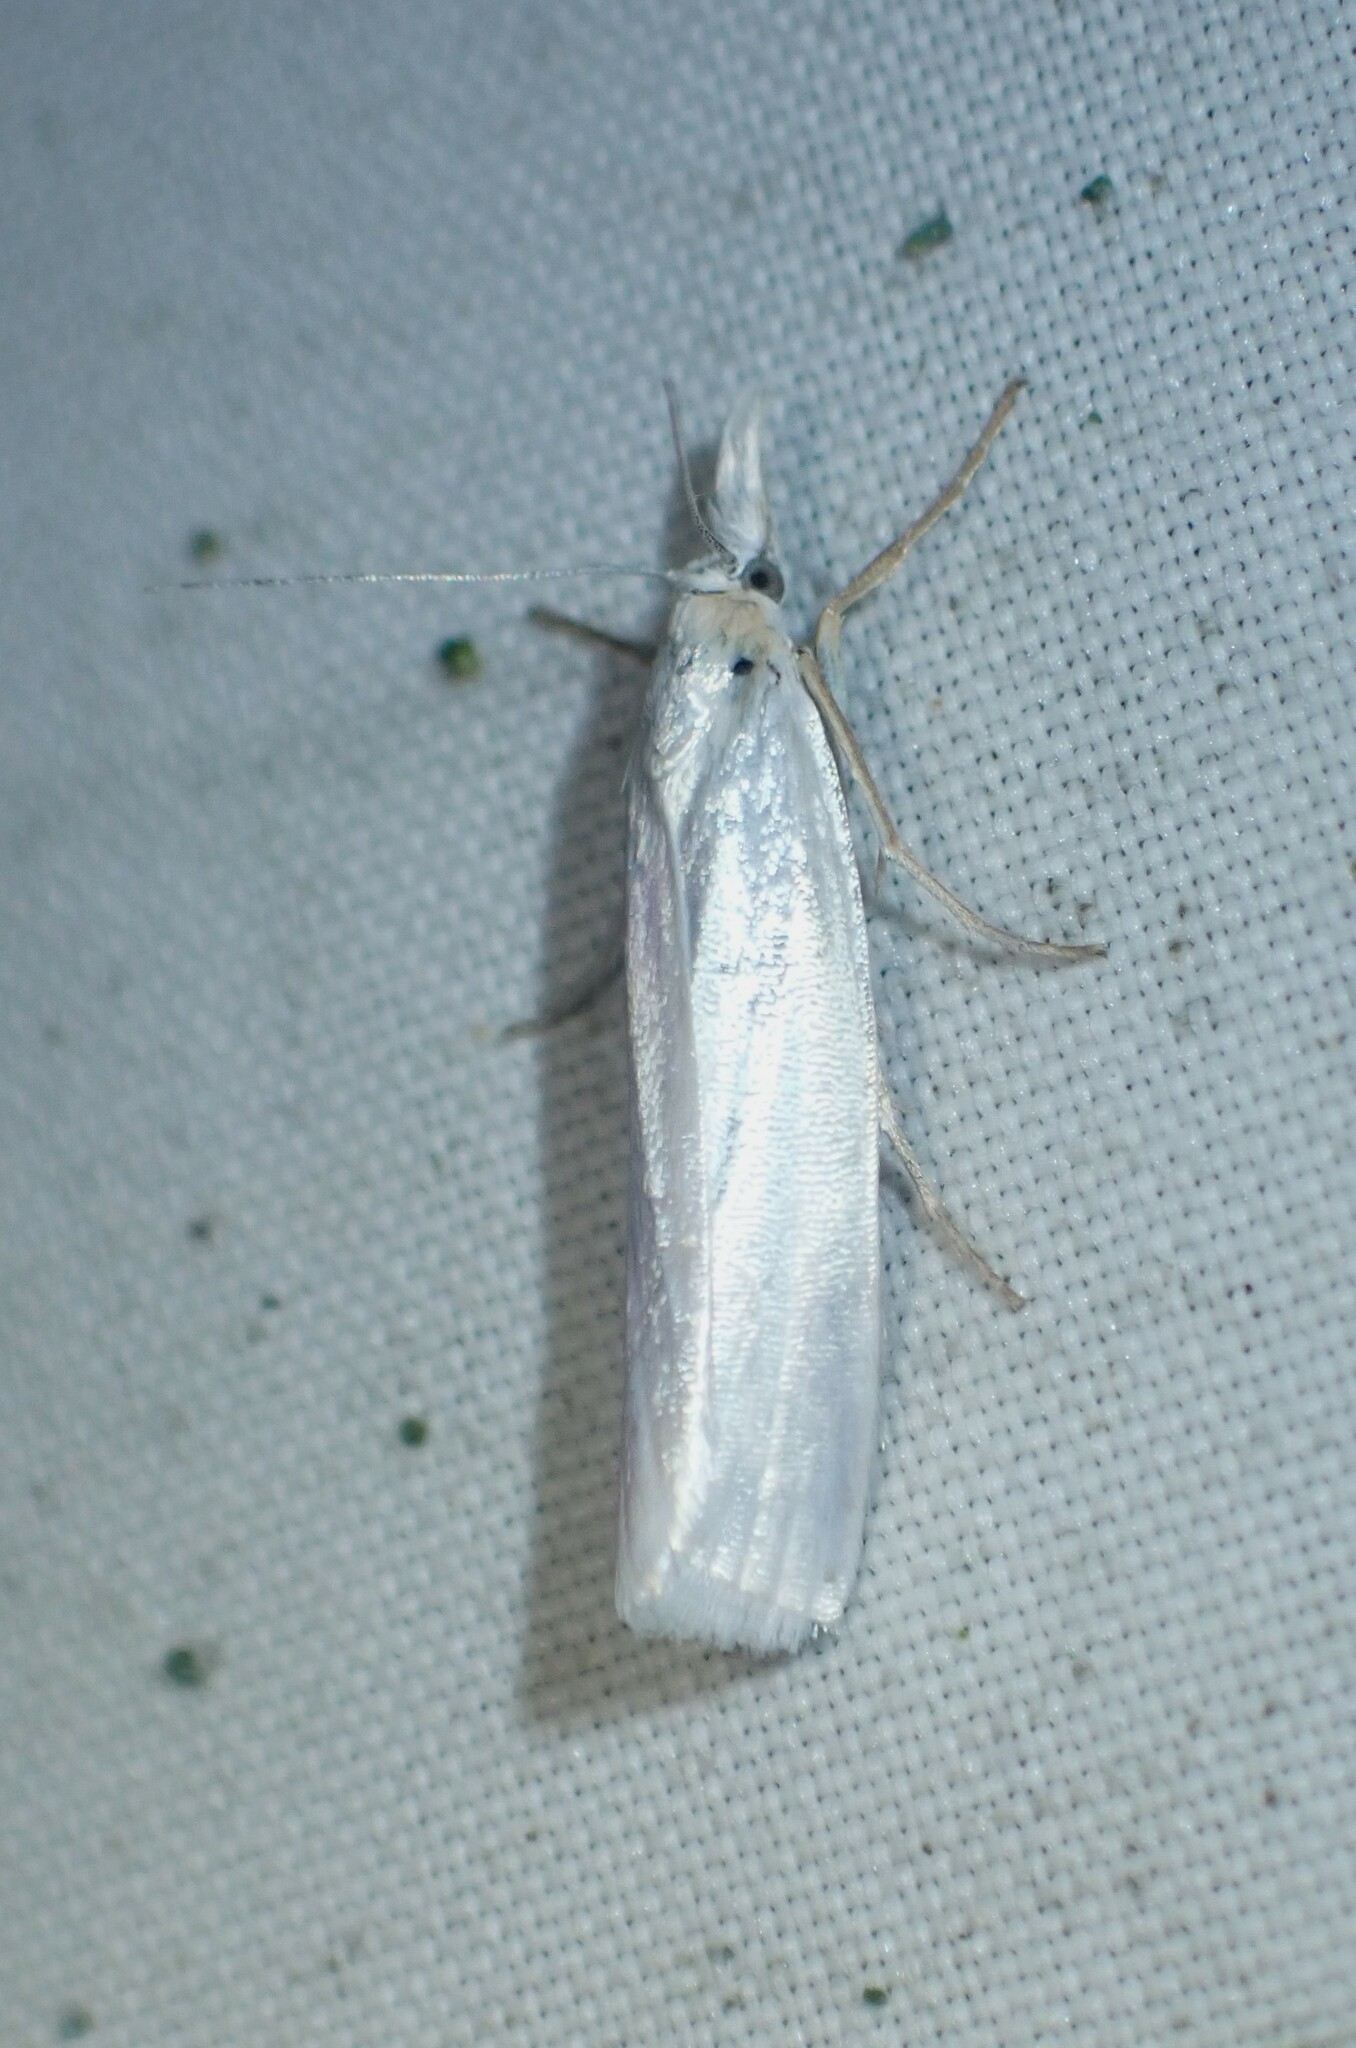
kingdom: Animalia
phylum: Arthropoda
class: Insecta
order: Lepidoptera
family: Crambidae
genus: Crambus
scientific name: Crambus perlellus
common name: Yellow satin veneer
